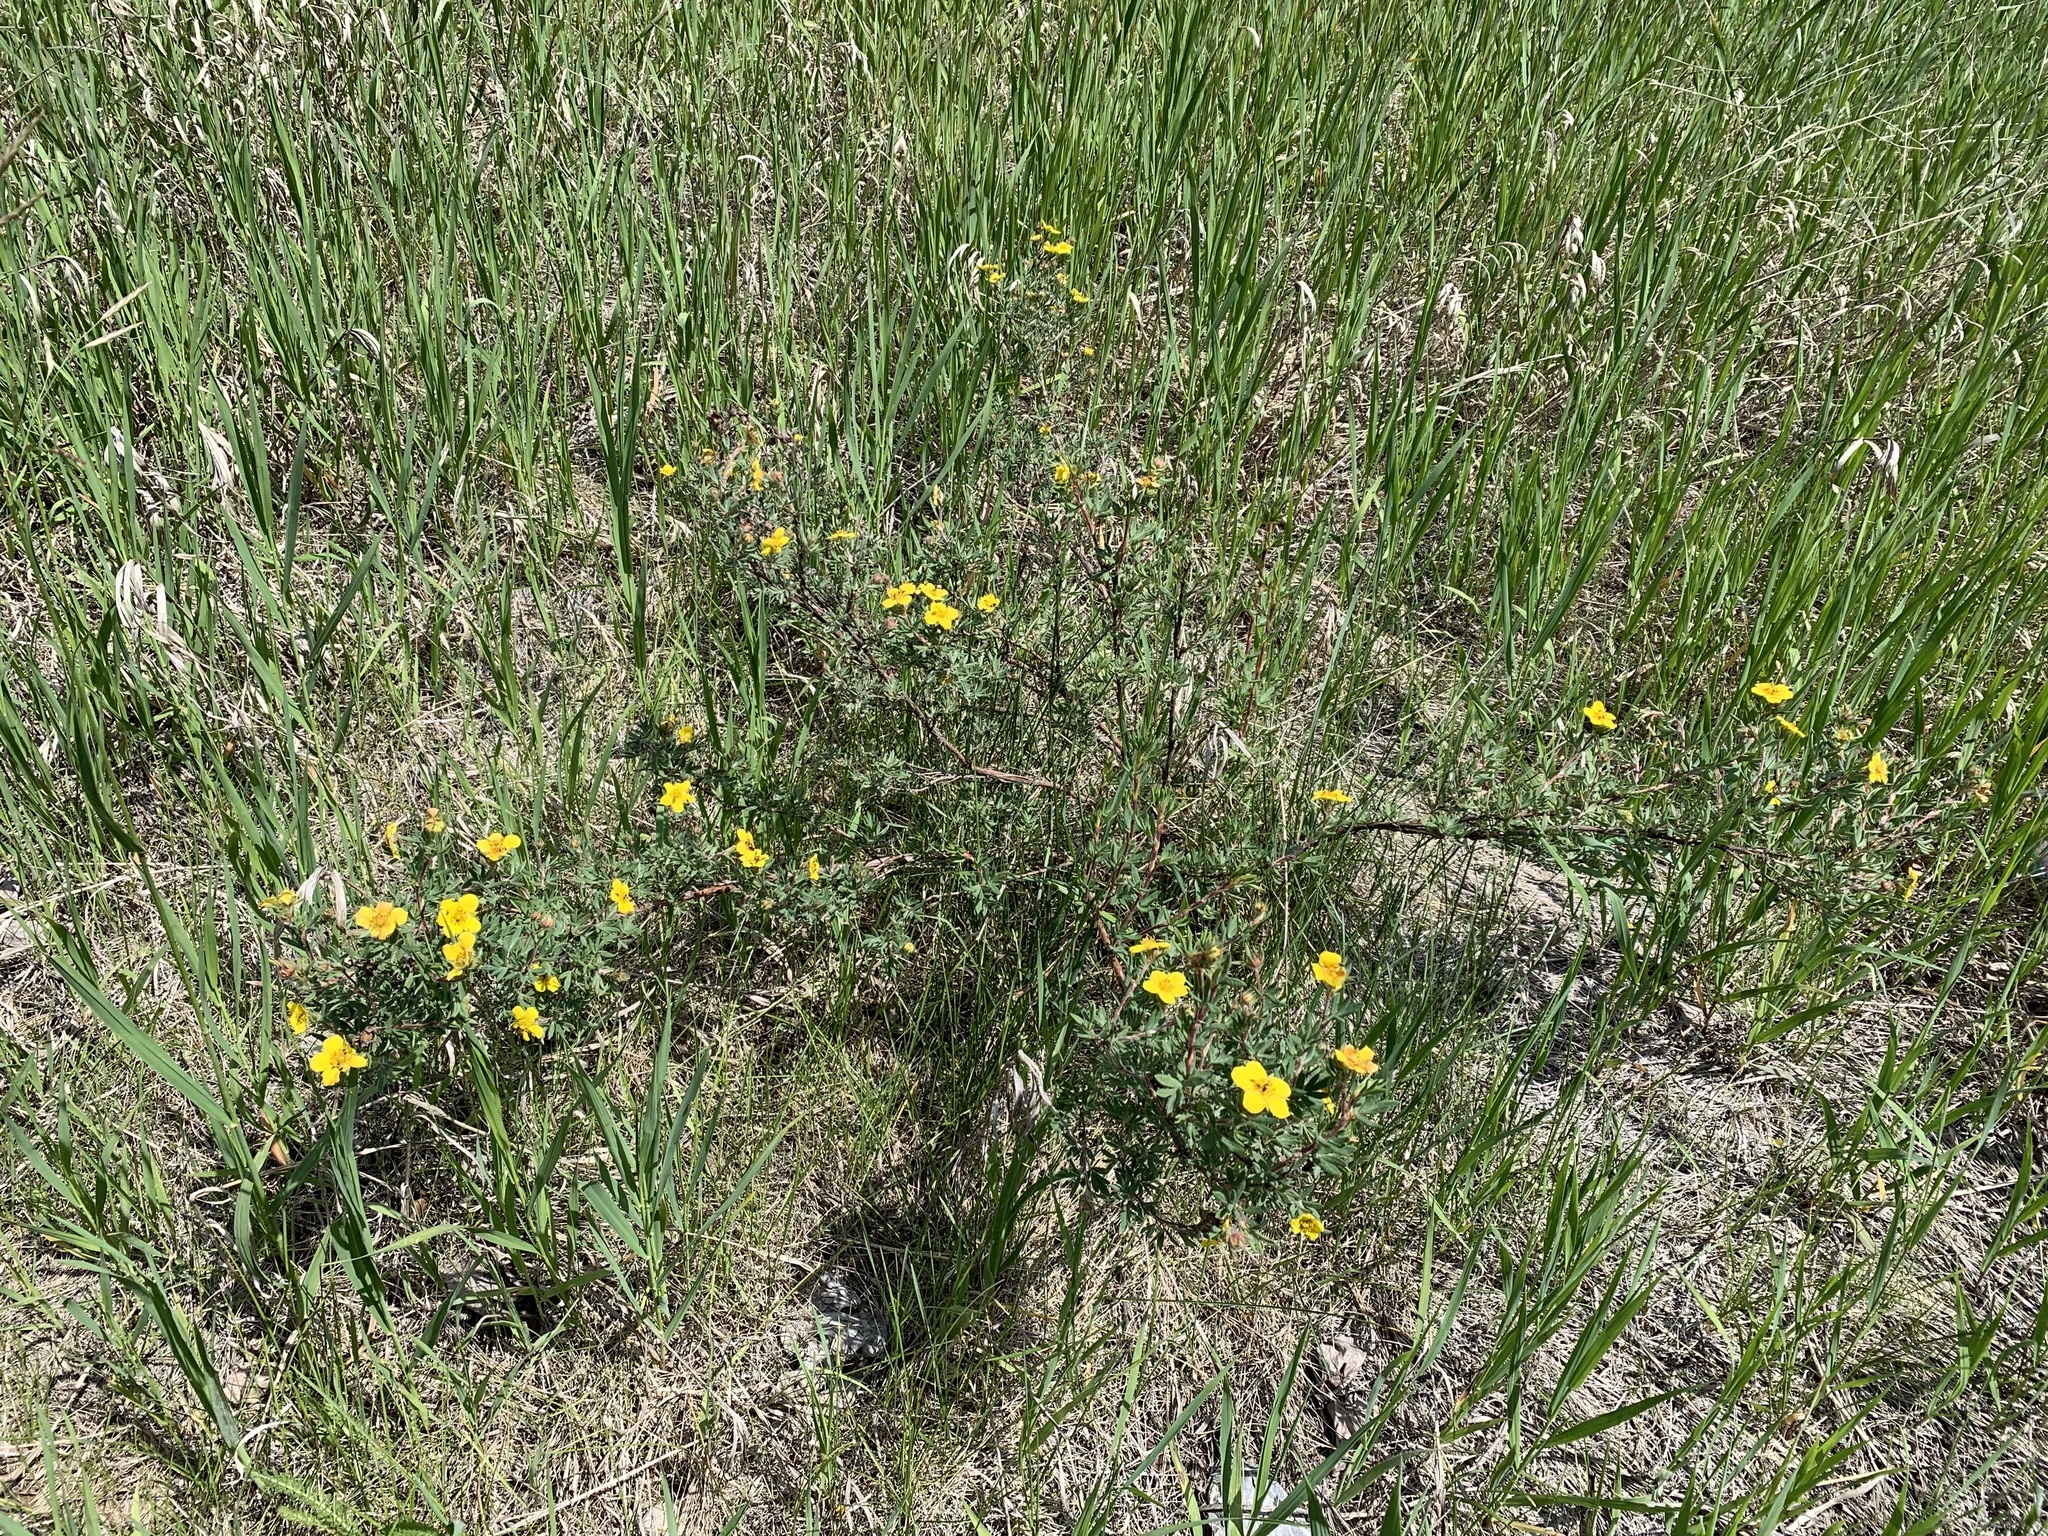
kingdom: Plantae
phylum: Tracheophyta
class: Magnoliopsida
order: Rosales
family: Rosaceae
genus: Dasiphora
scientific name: Dasiphora fruticosa
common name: Shrubby cinquefoil
